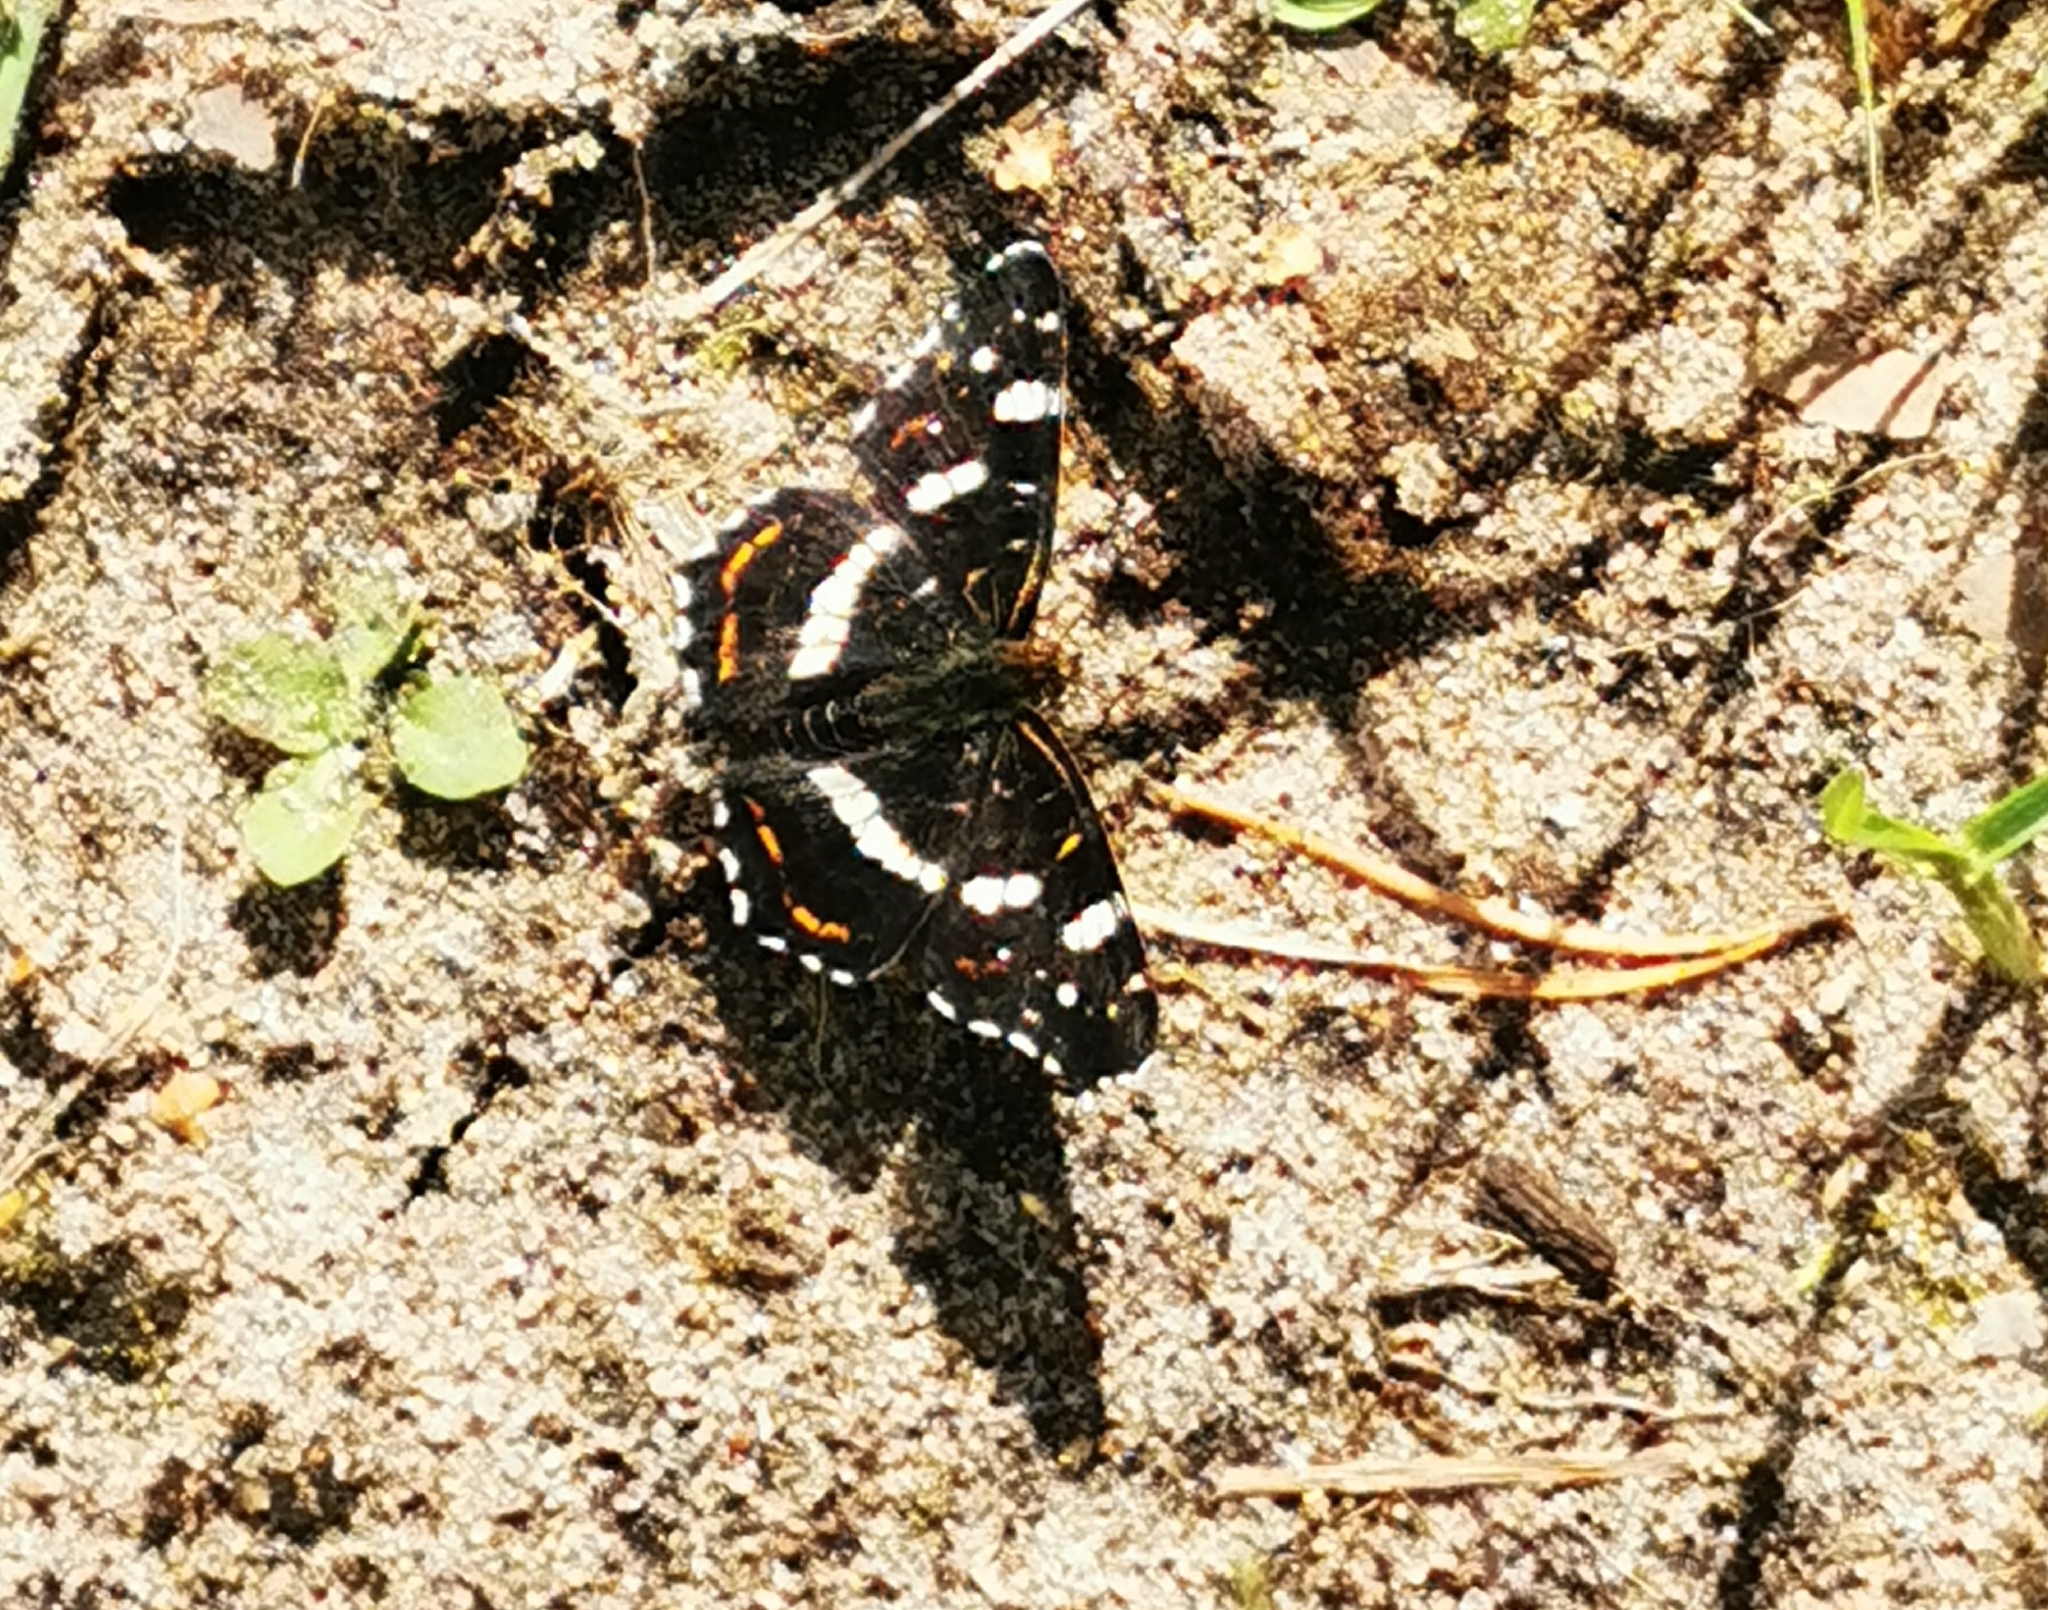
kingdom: Animalia
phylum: Arthropoda
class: Insecta
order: Lepidoptera
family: Nymphalidae
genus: Araschnia
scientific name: Araschnia levana
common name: Map butterfly
